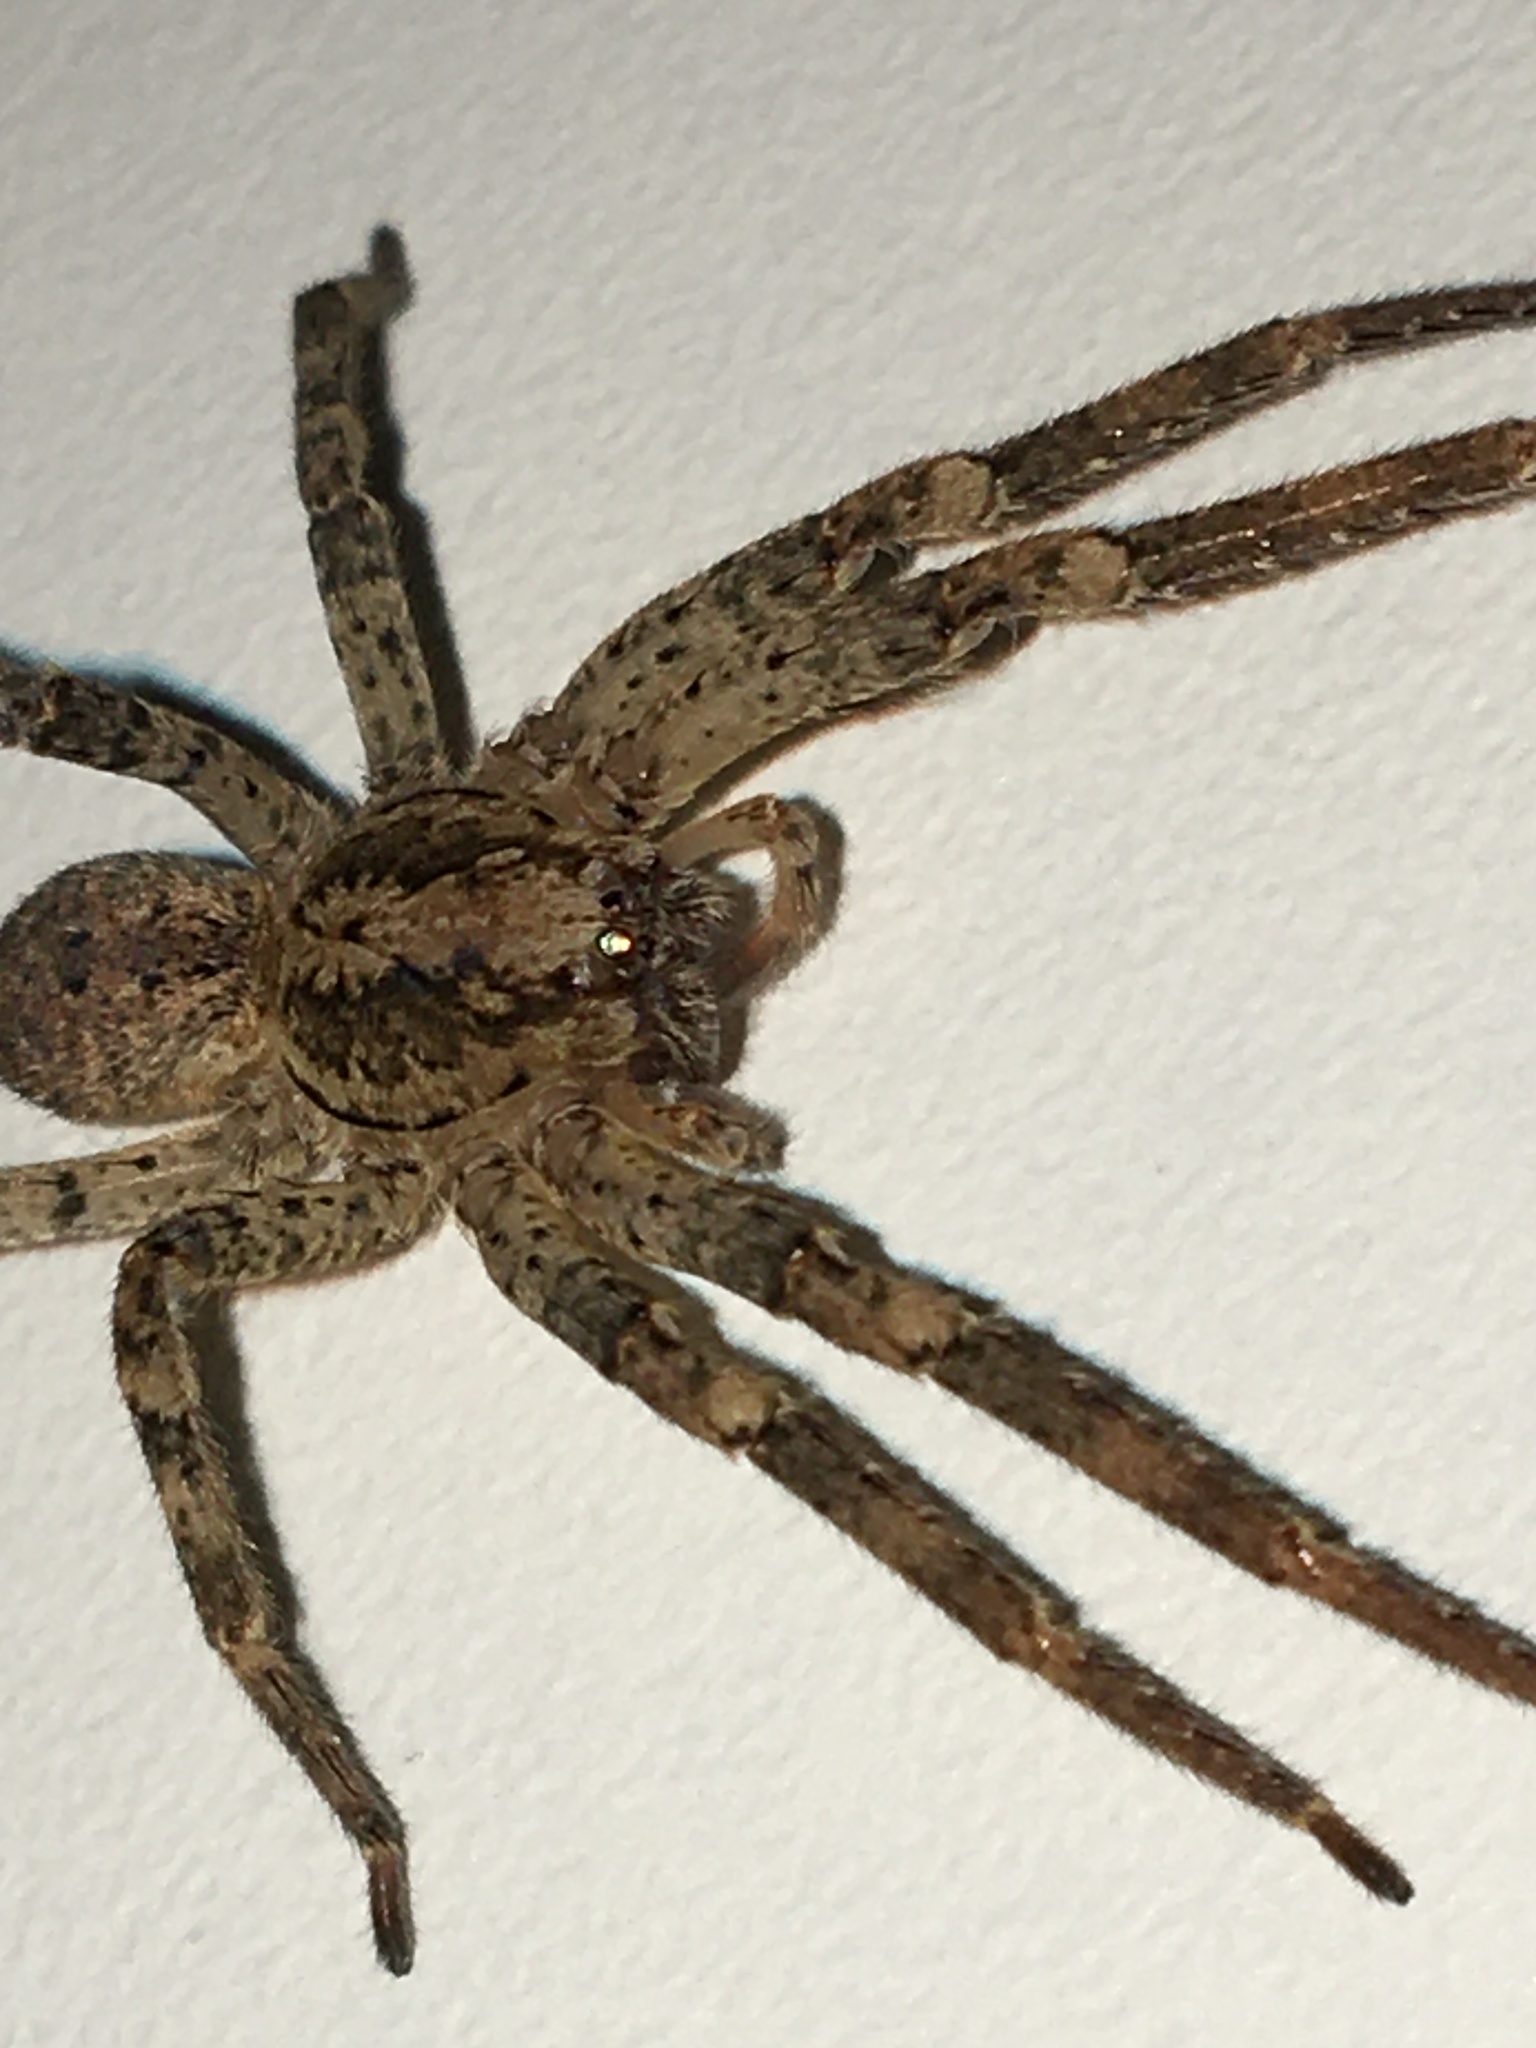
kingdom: Animalia
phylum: Arthropoda
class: Arachnida
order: Araneae
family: Zoropsidae
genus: Zoropsis
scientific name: Zoropsis spinimana
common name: Zoropsid spider
